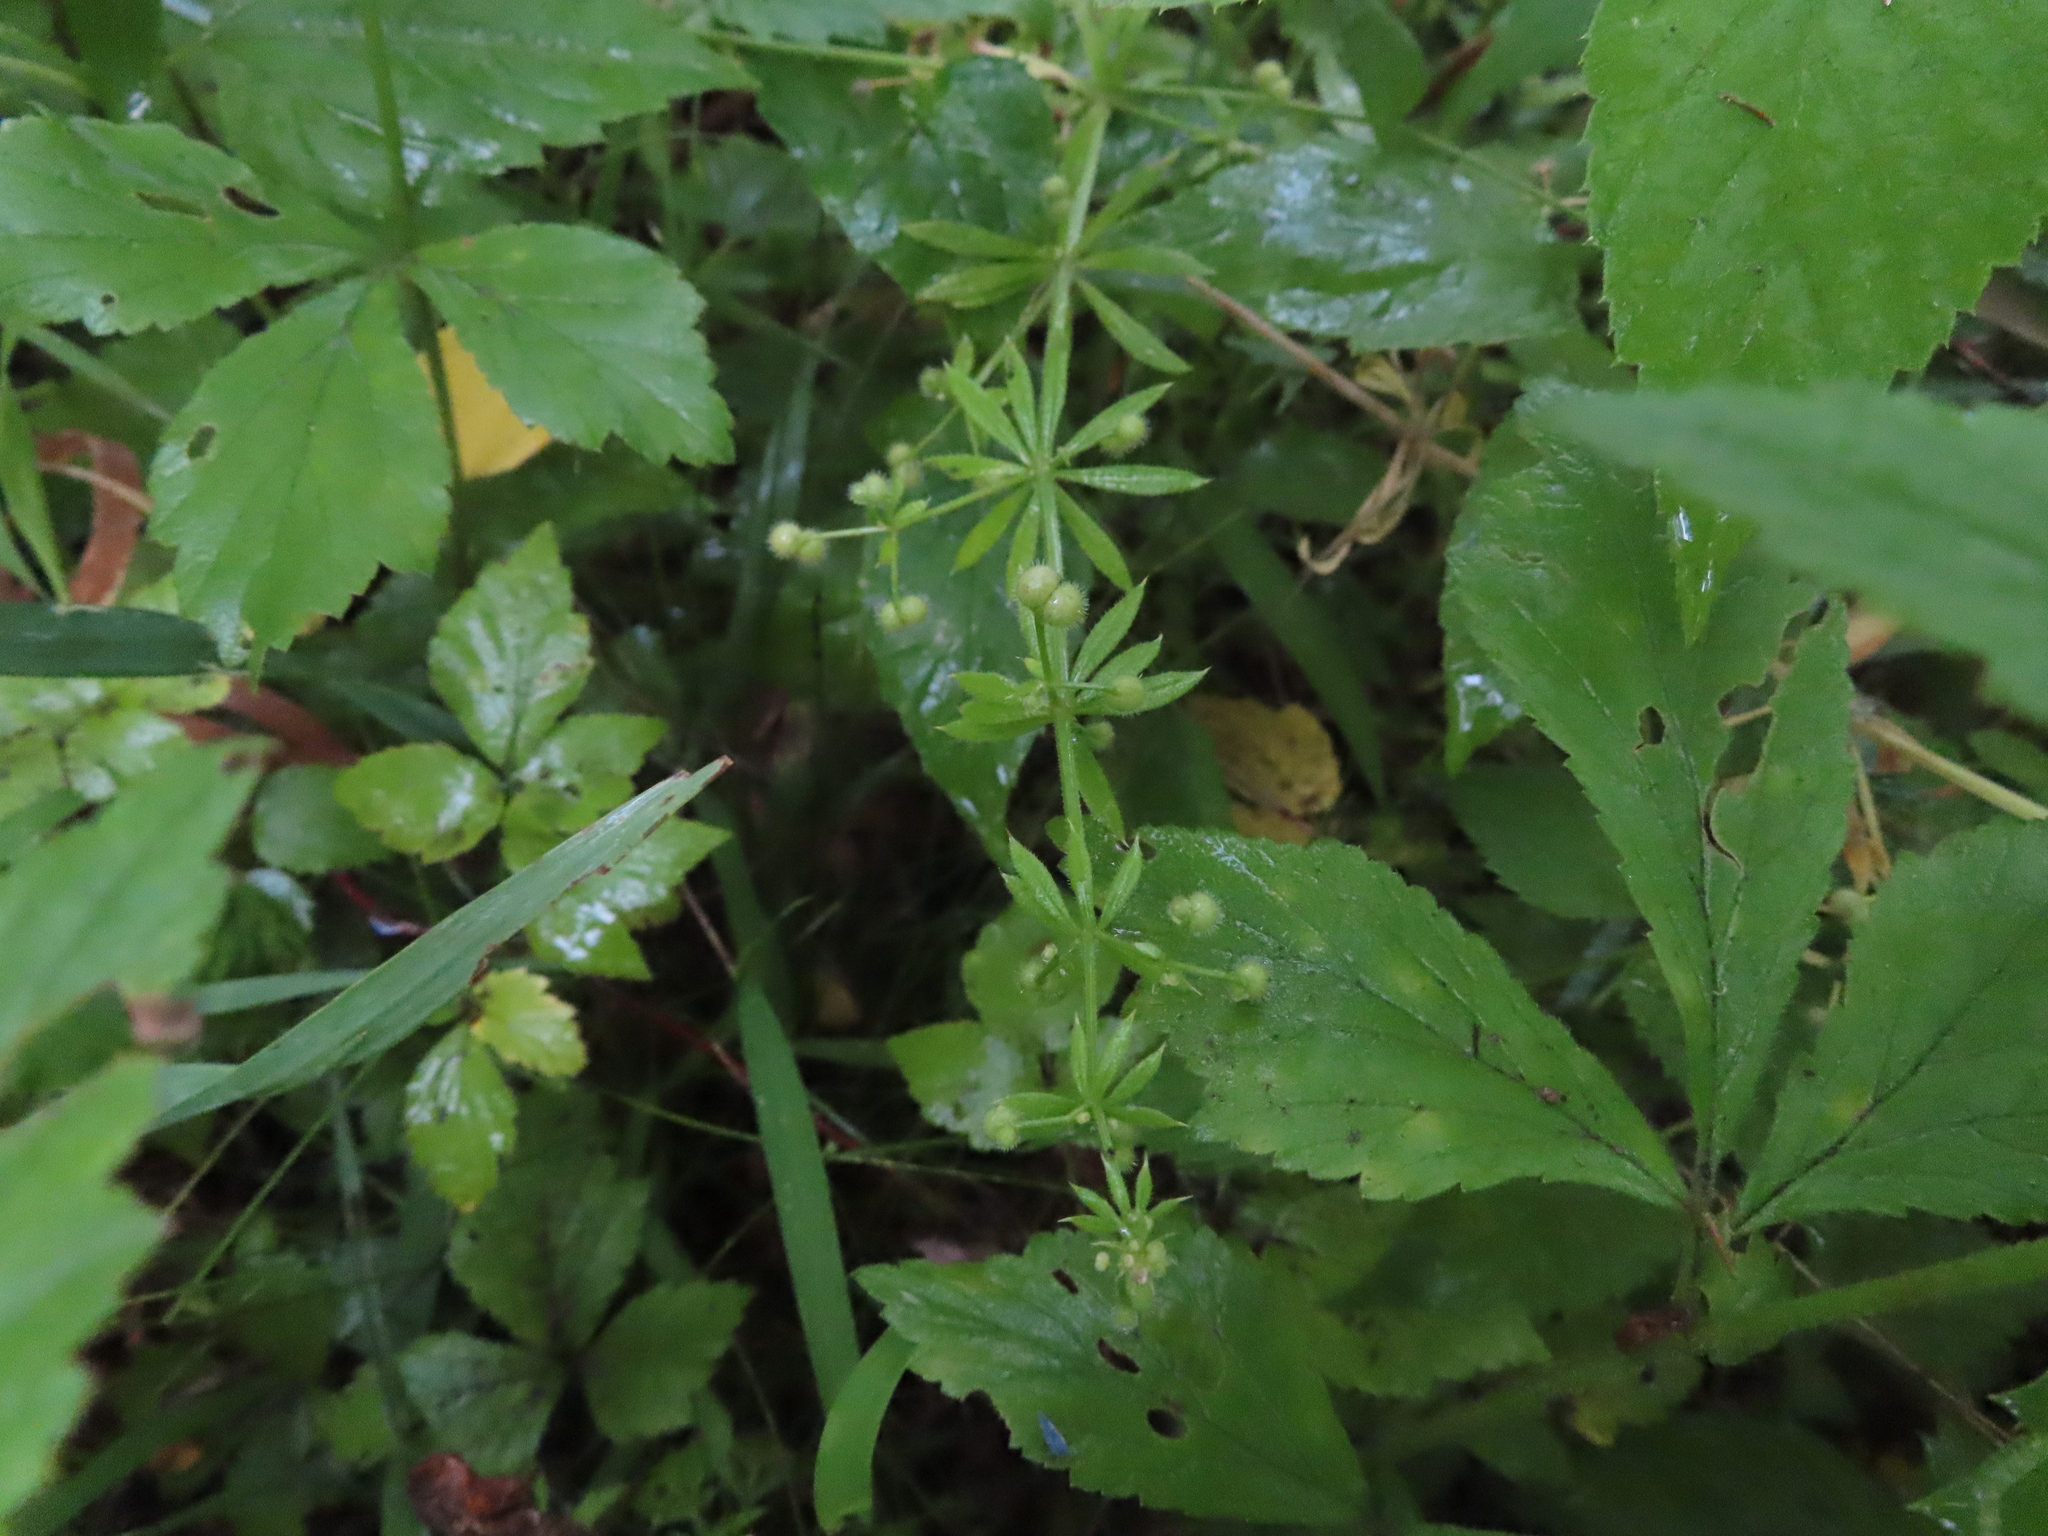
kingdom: Plantae
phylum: Tracheophyta
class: Magnoliopsida
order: Gentianales
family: Rubiaceae
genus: Galium
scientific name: Galium aparine
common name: Cleavers
